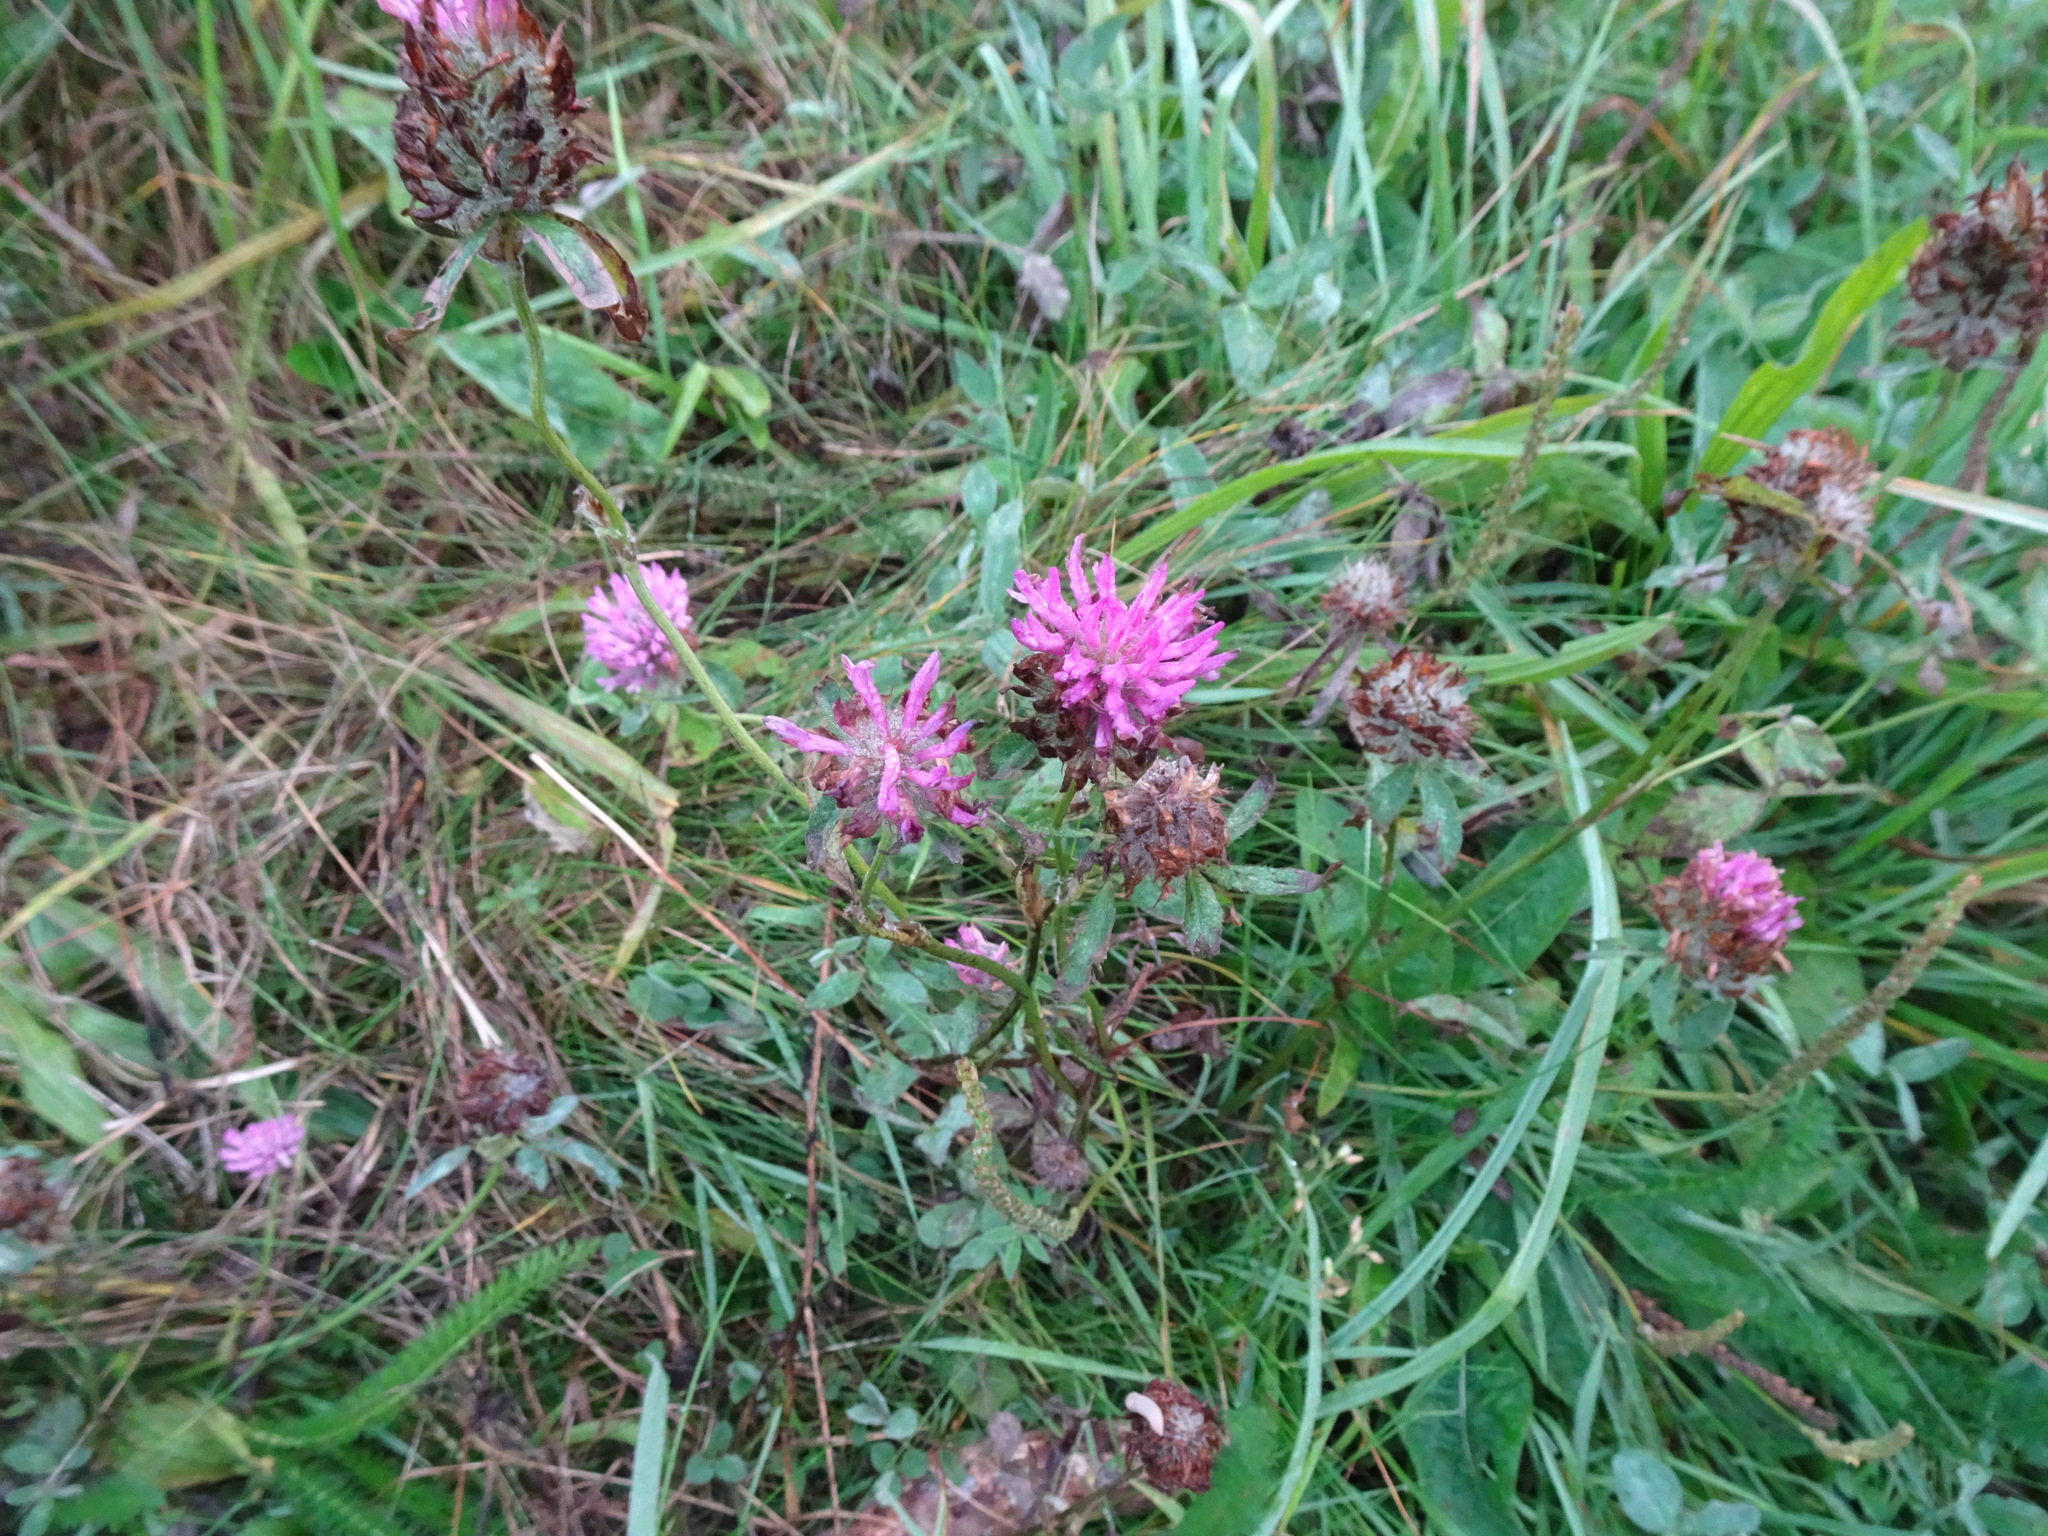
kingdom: Plantae
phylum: Tracheophyta
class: Magnoliopsida
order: Fabales
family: Fabaceae
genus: Trifolium
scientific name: Trifolium pratense
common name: Red clover
